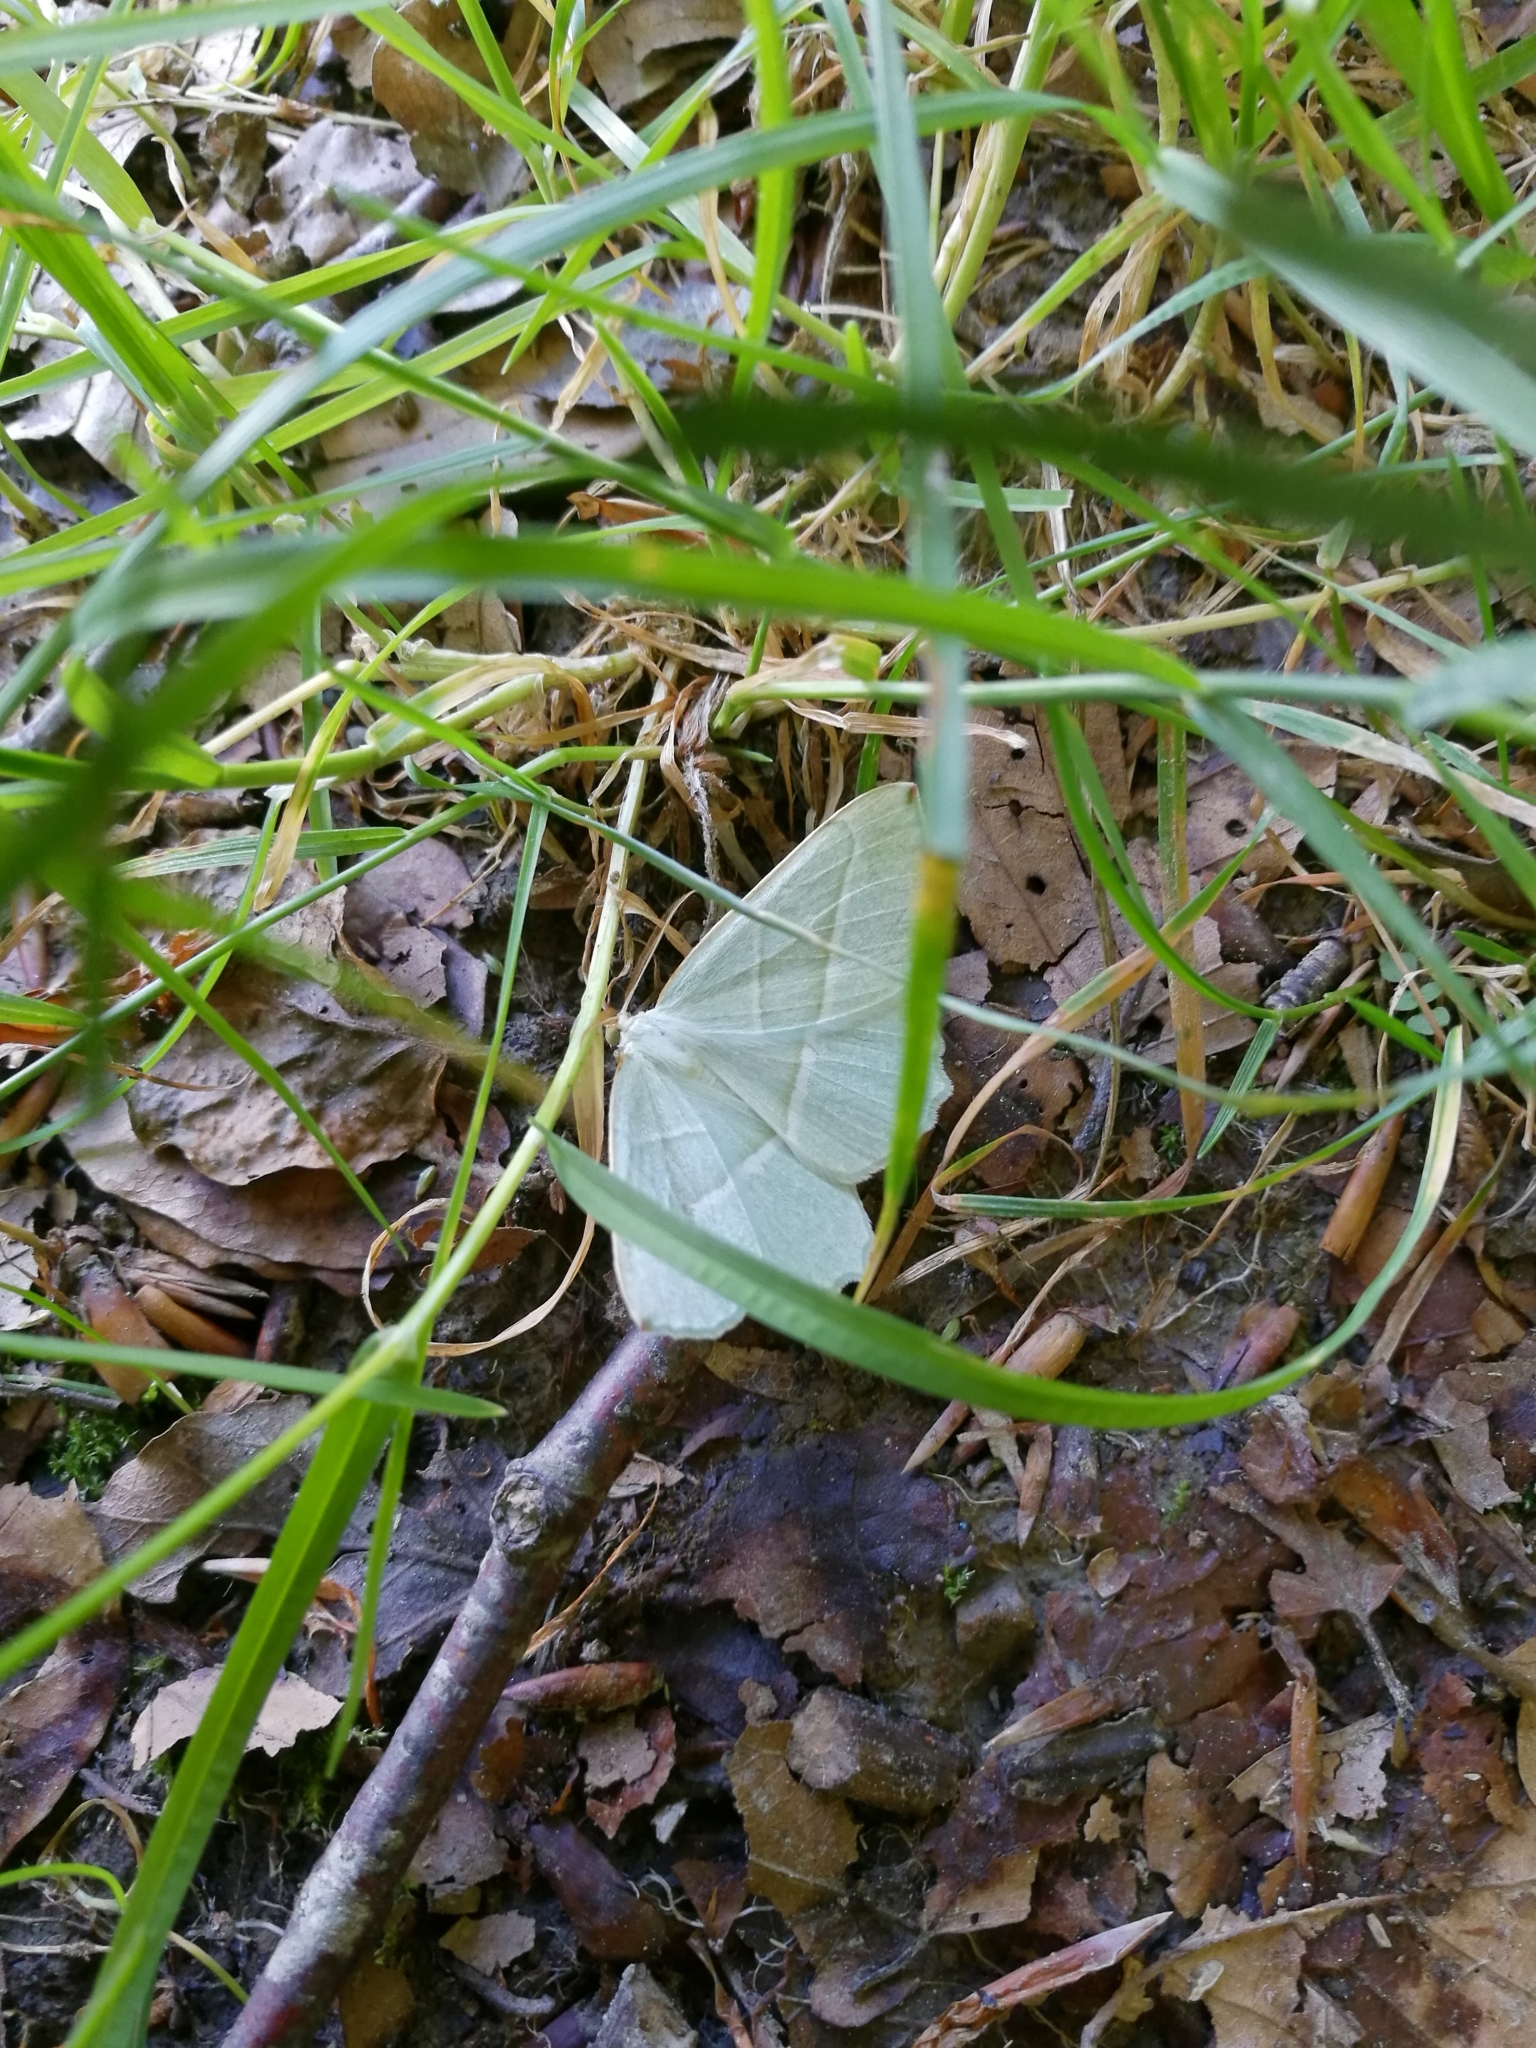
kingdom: Animalia
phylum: Arthropoda
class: Insecta
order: Lepidoptera
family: Geometridae
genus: Campaea
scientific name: Campaea margaritaria
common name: Light emerald
